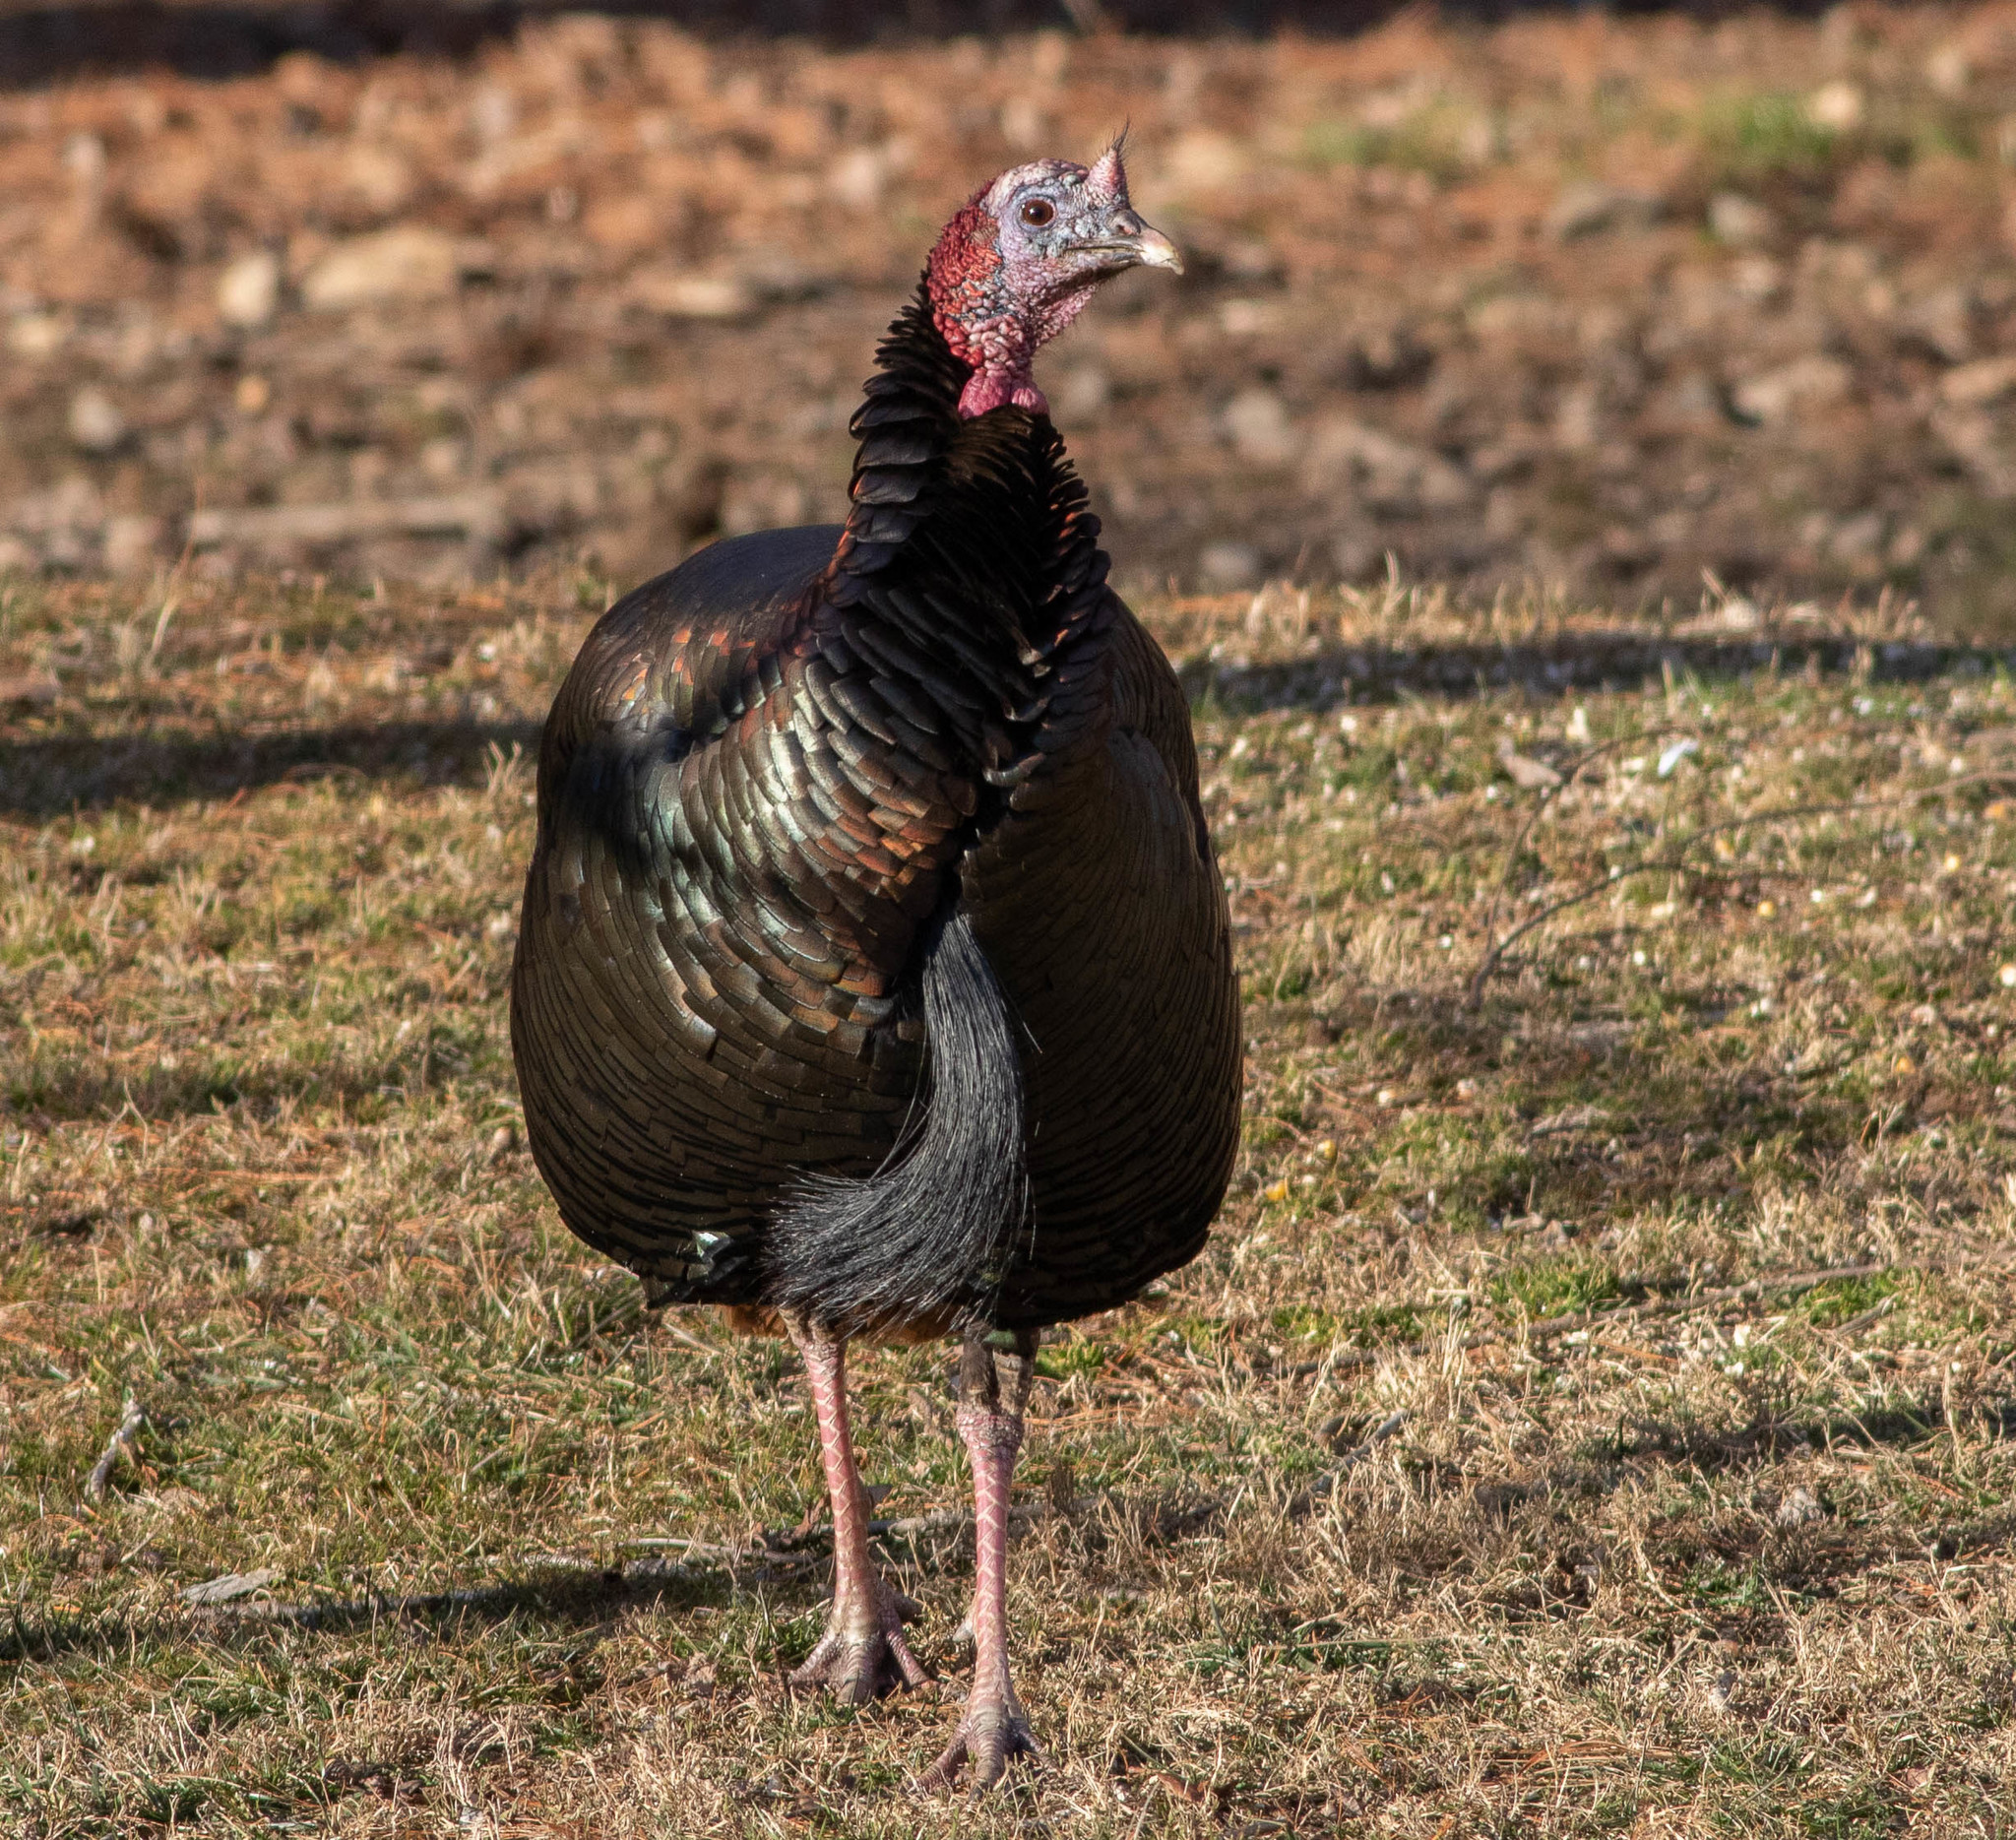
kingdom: Animalia
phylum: Chordata
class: Aves
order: Galliformes
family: Phasianidae
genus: Meleagris
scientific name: Meleagris gallopavo
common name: Wild turkey
